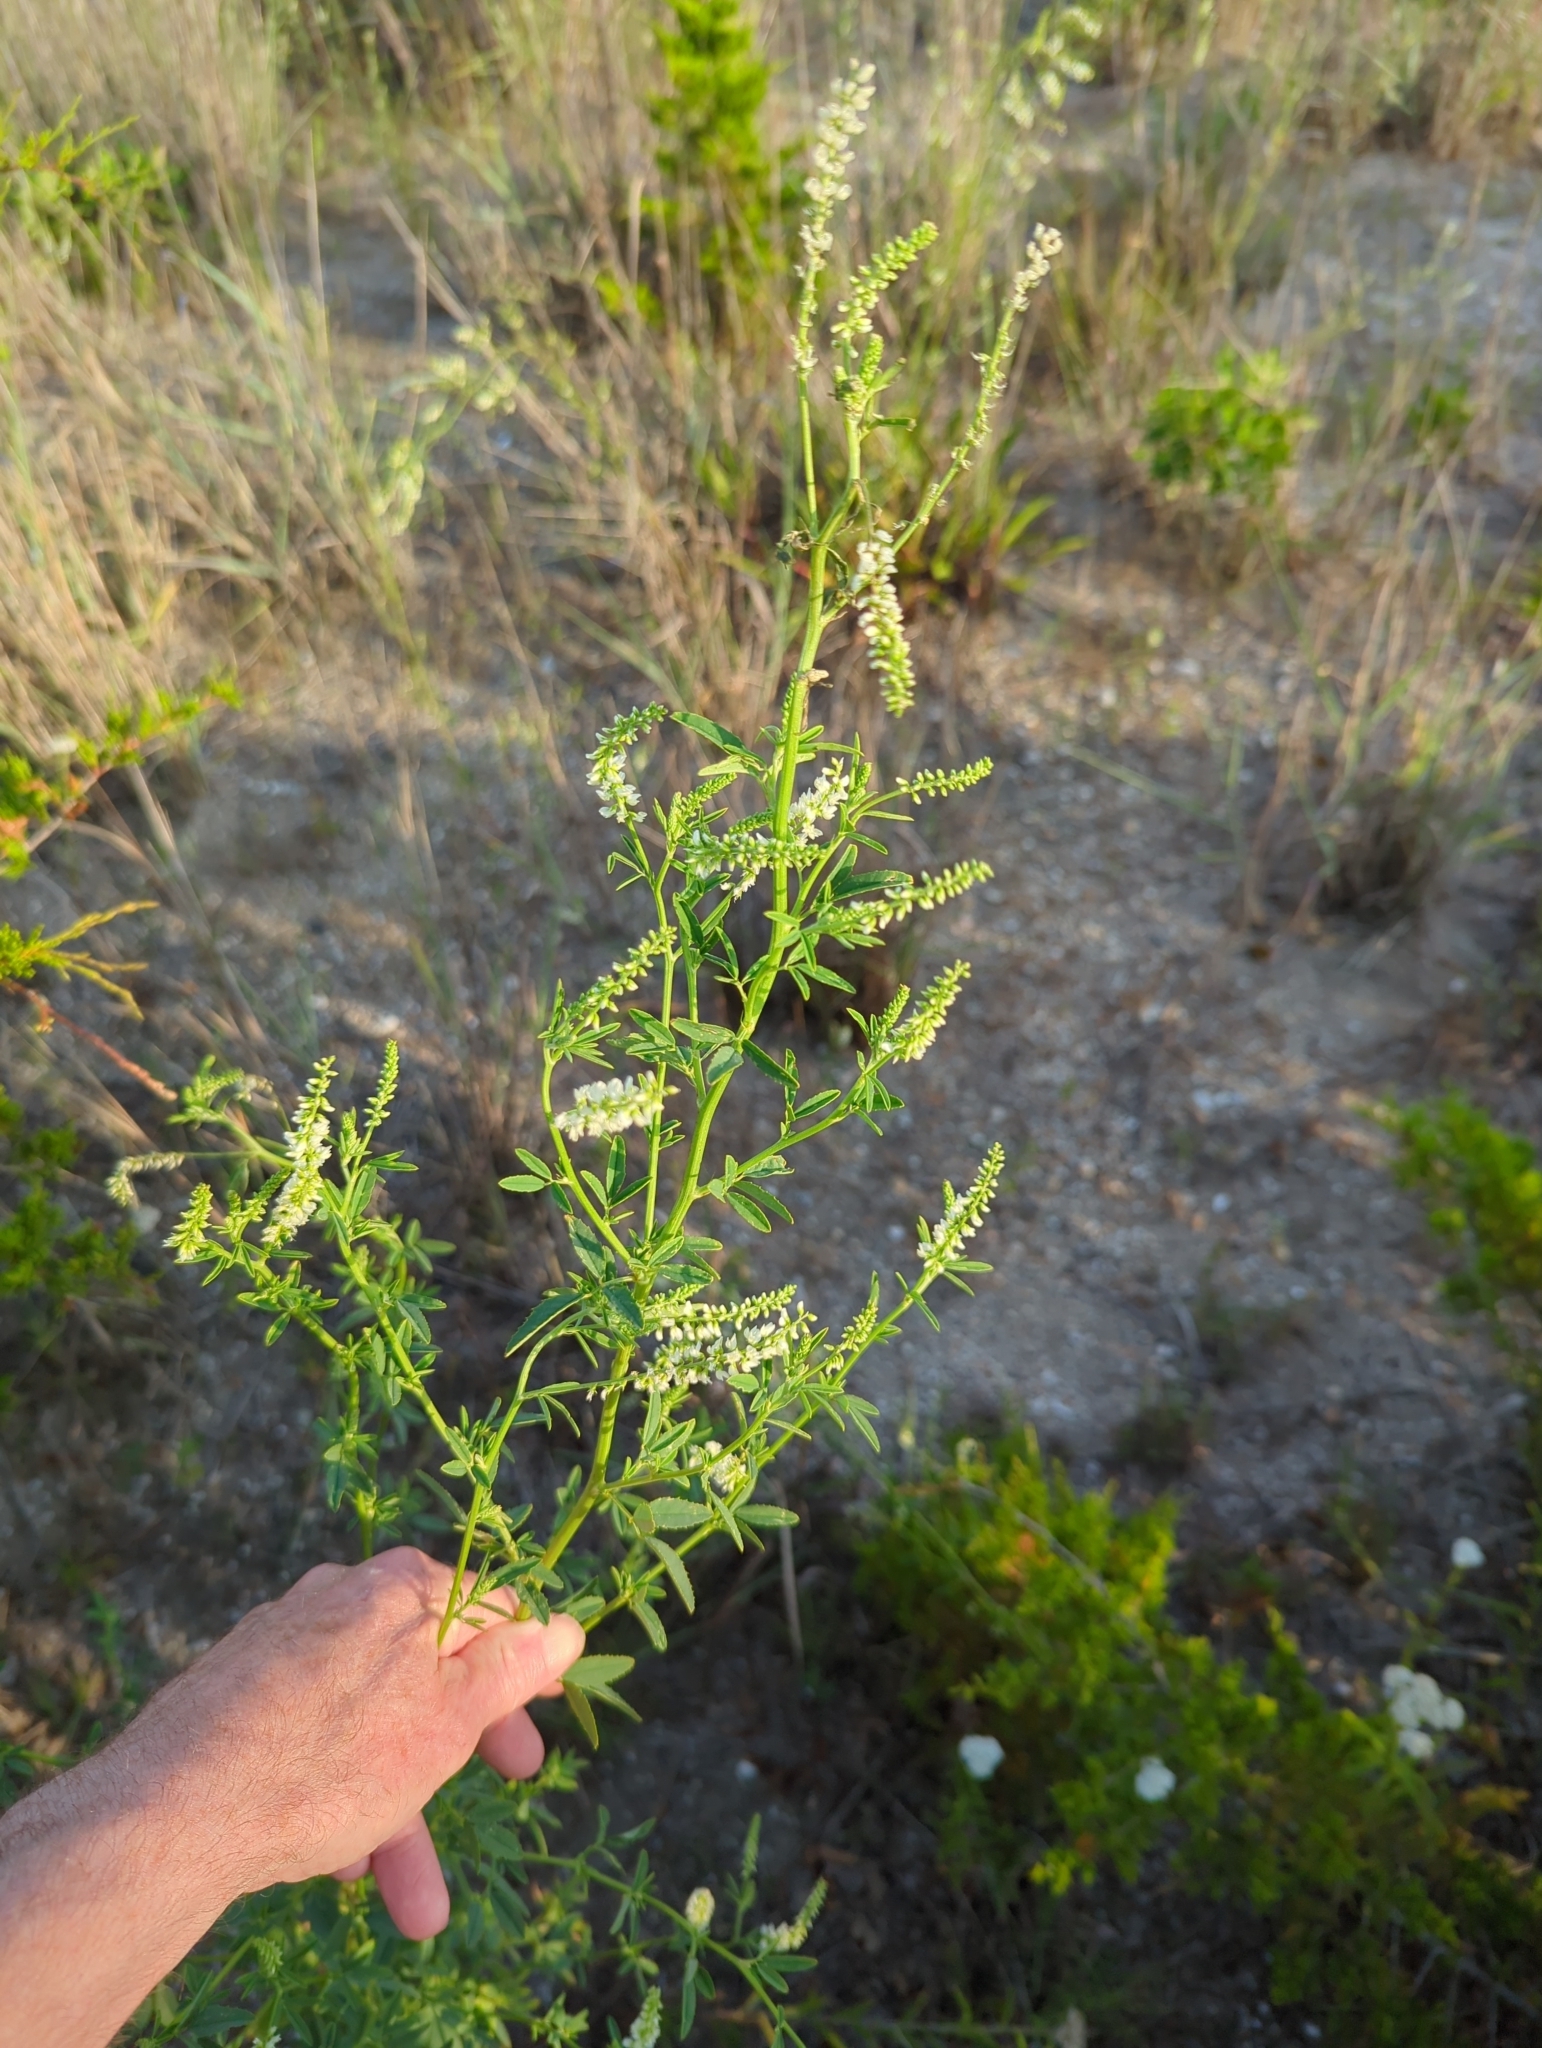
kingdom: Plantae
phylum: Tracheophyta
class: Magnoliopsida
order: Fabales
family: Fabaceae
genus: Melilotus
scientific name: Melilotus albus
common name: White melilot
